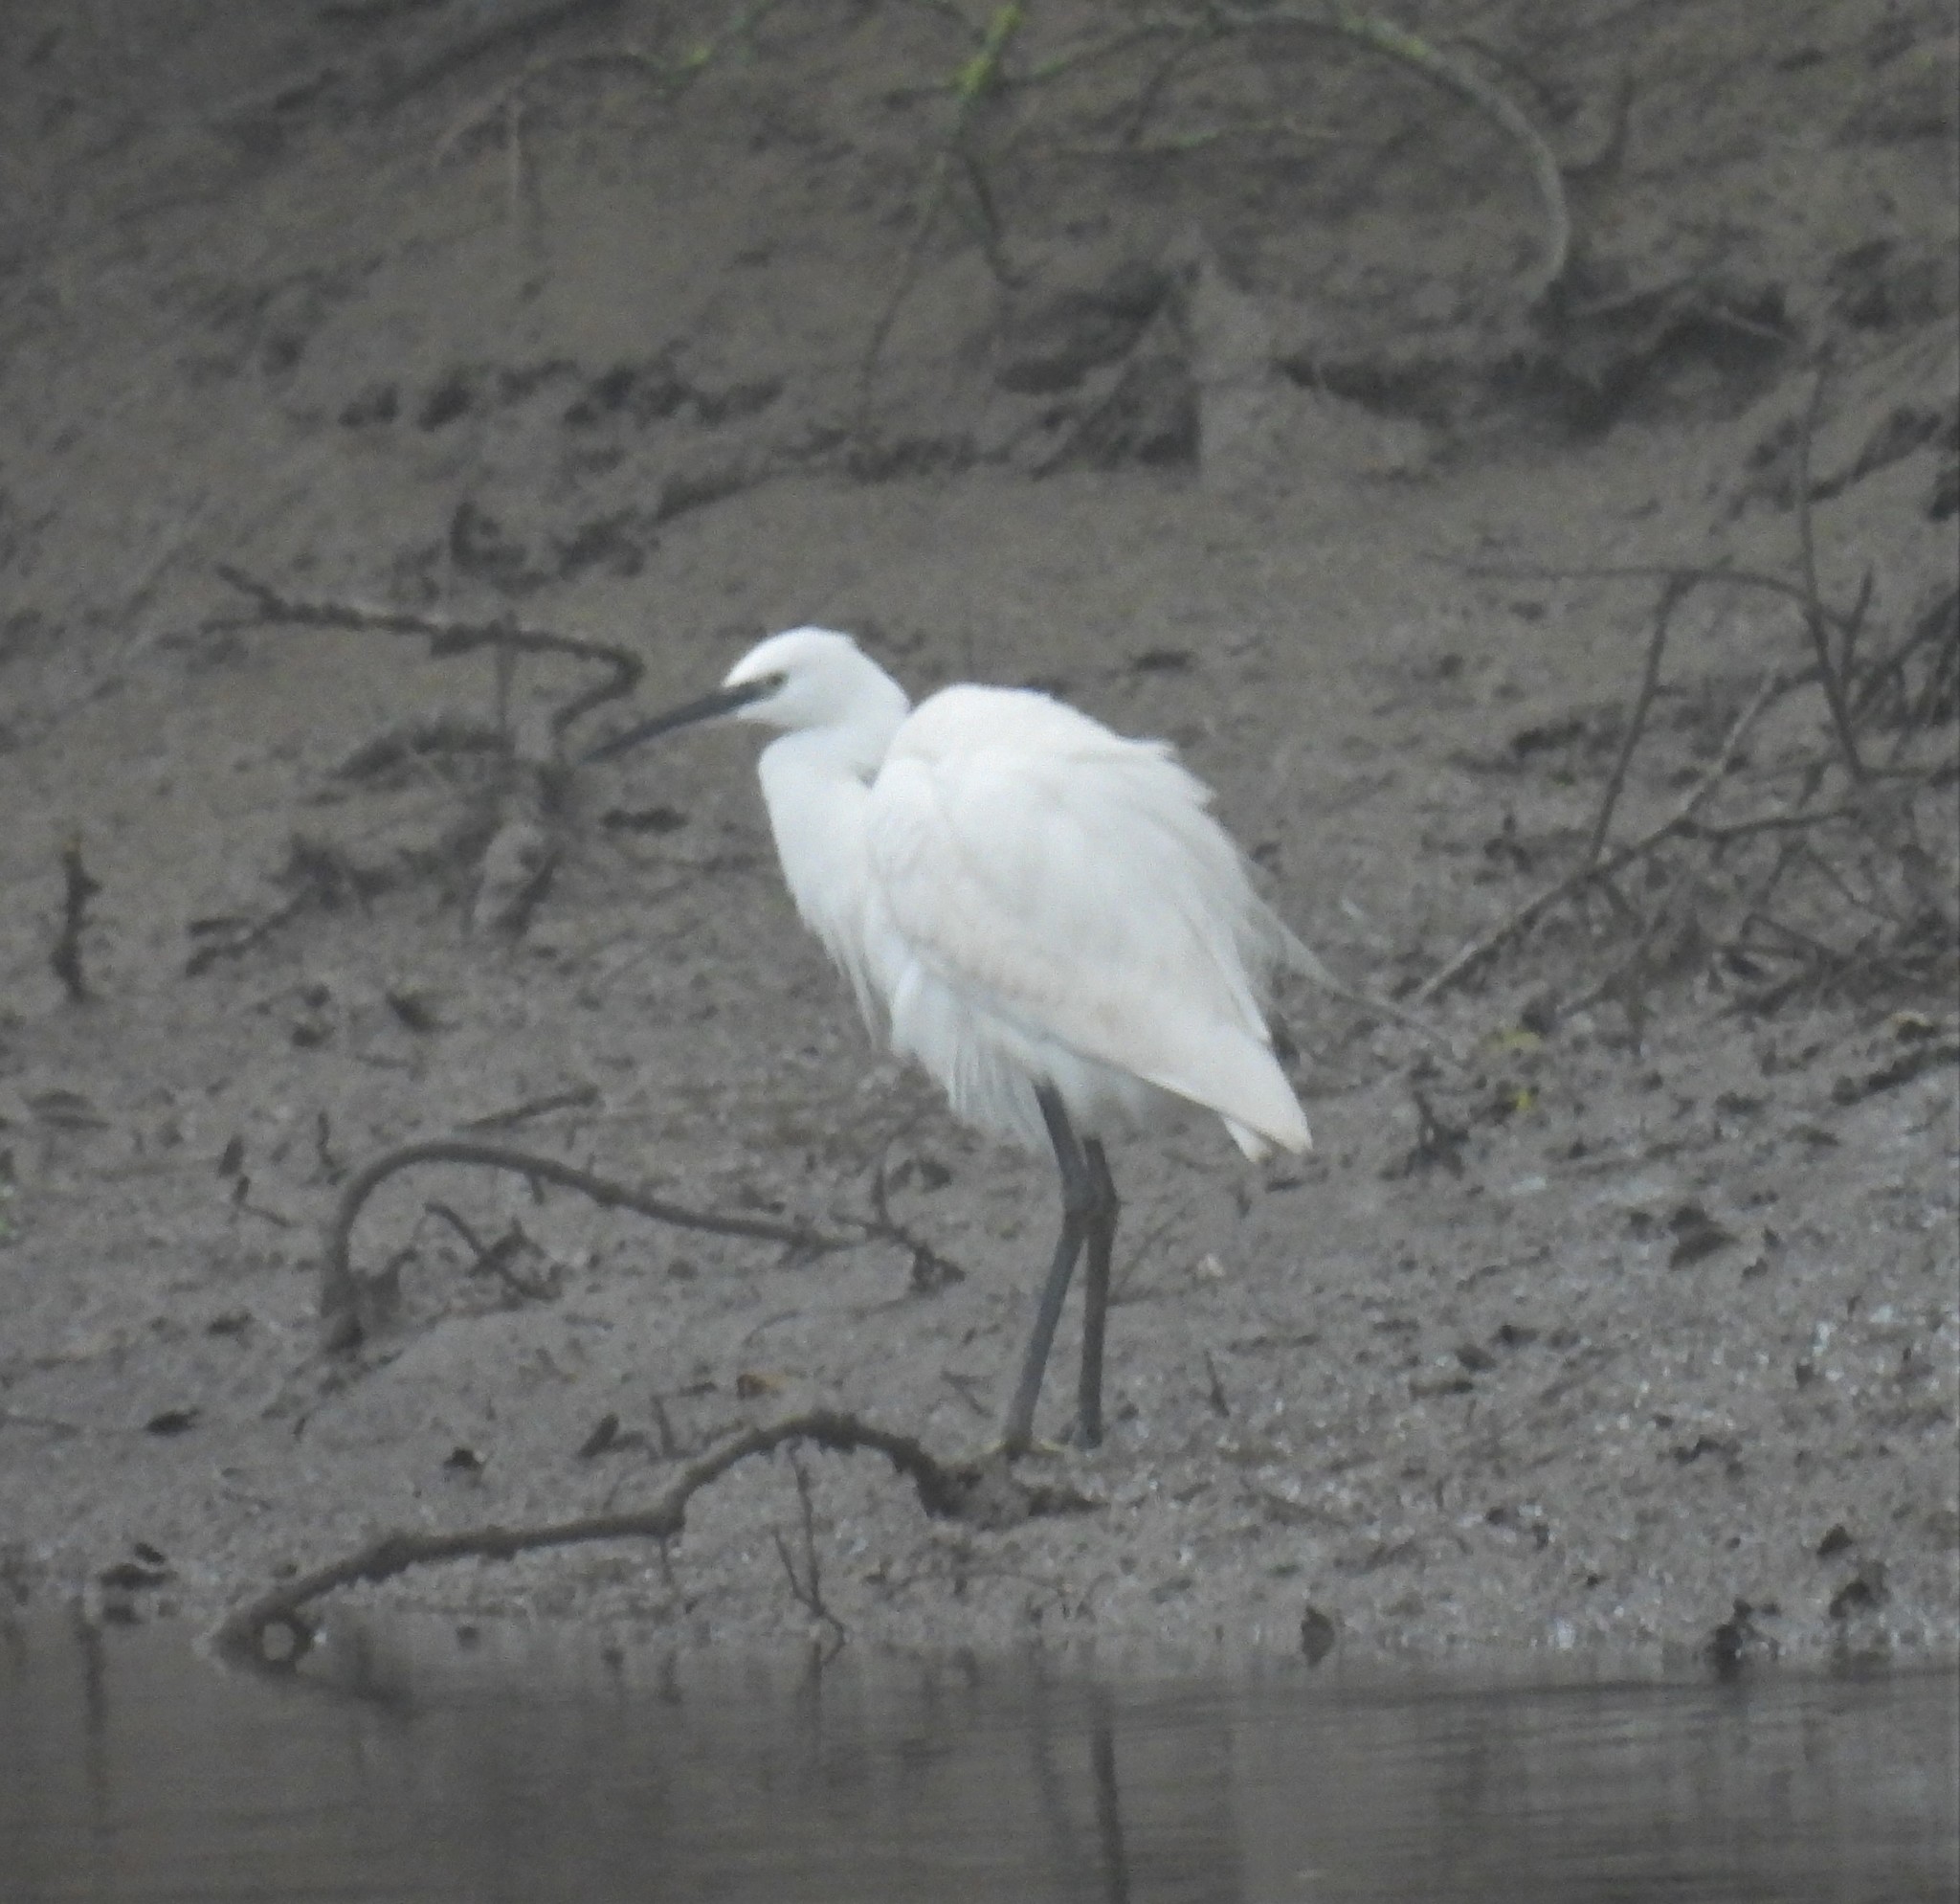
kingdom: Animalia
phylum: Chordata
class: Aves
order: Pelecaniformes
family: Ardeidae
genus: Egretta
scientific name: Egretta garzetta
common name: Little egret
